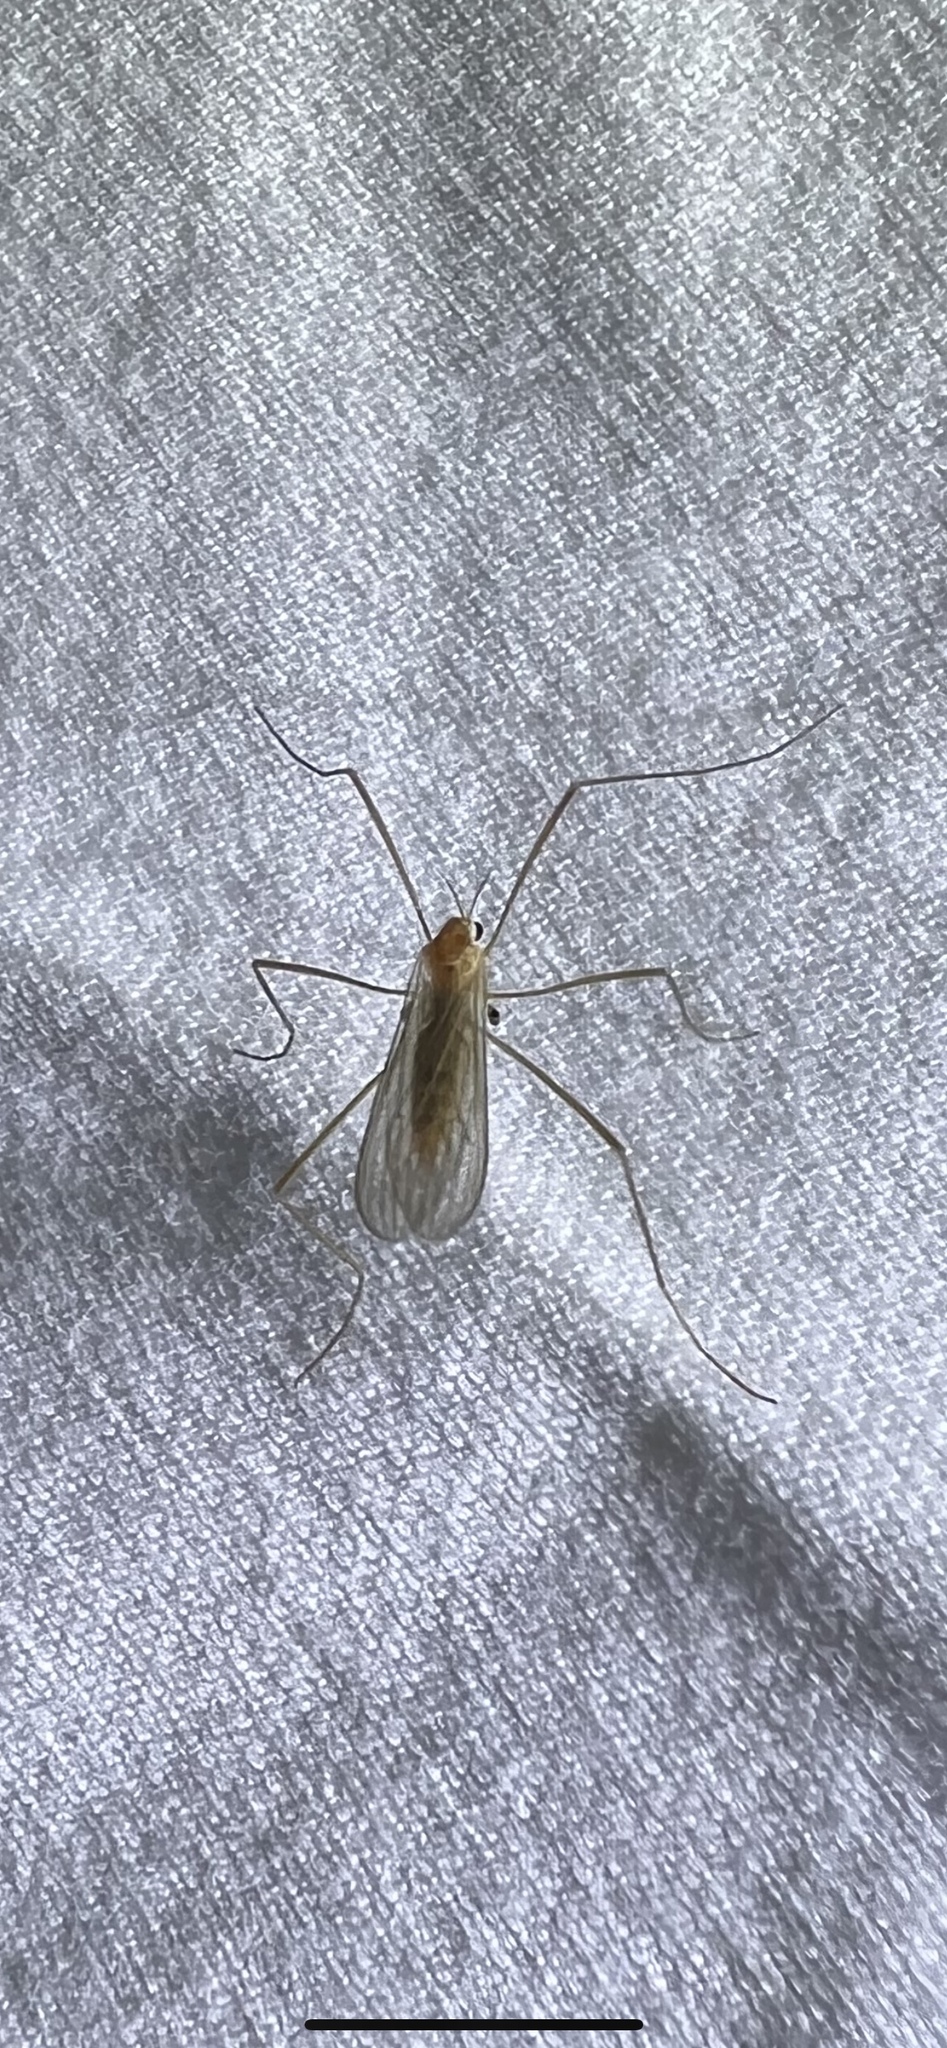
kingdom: Animalia
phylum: Arthropoda
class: Insecta
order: Diptera
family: Limoniidae
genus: Erioptera
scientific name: Erioptera septemtrionis
